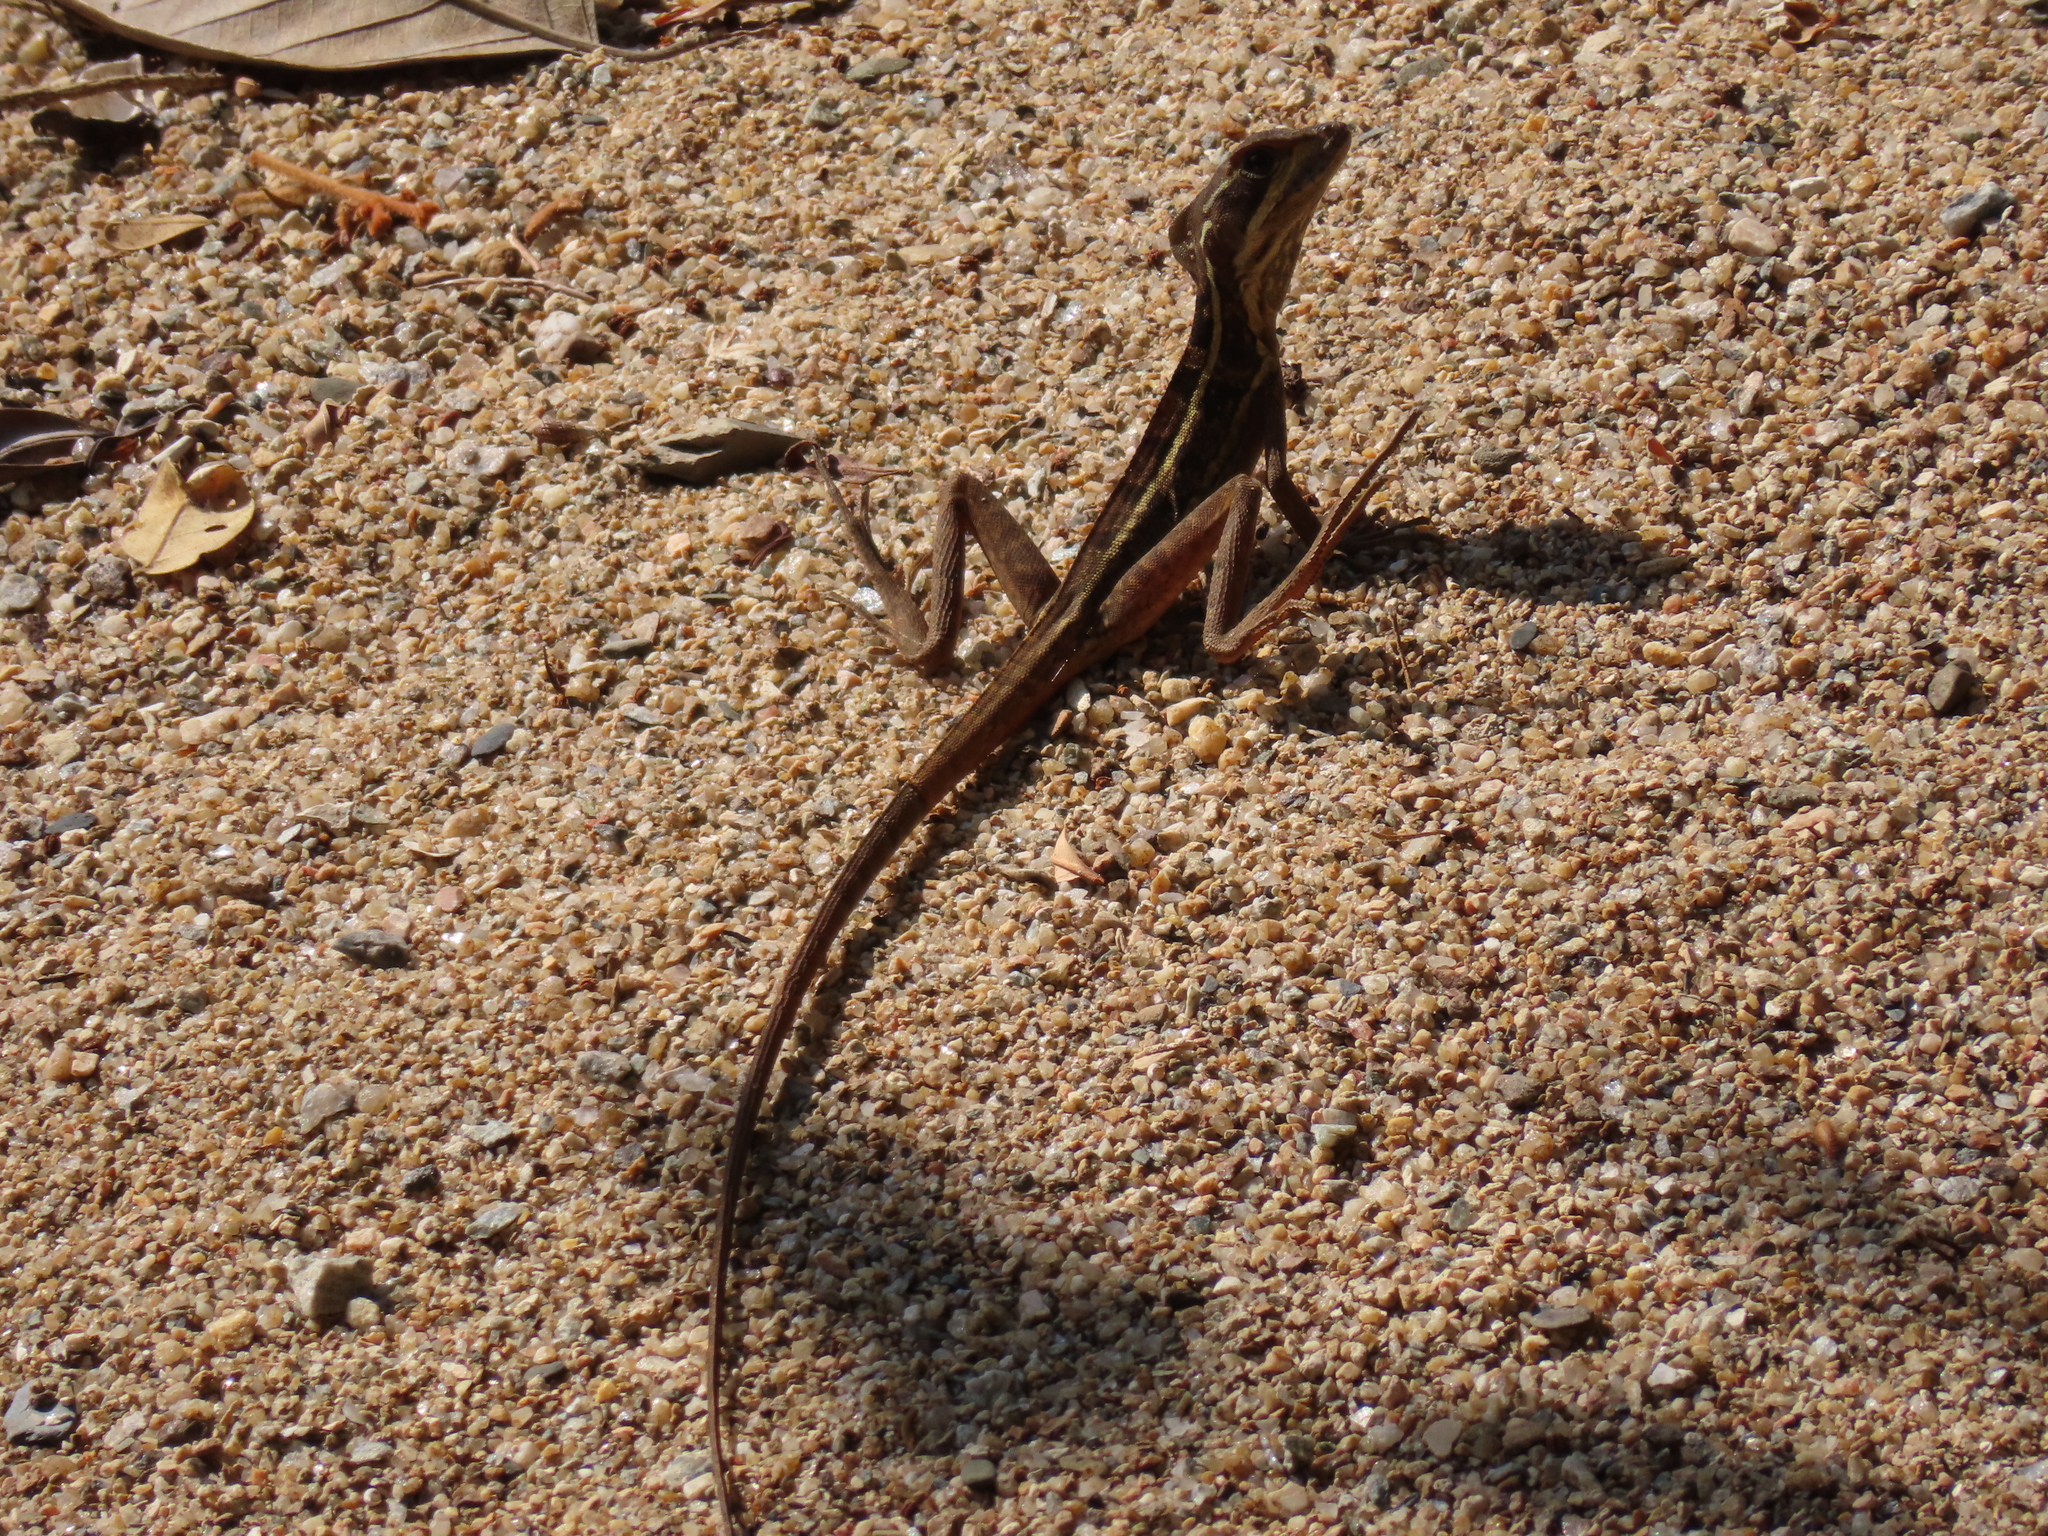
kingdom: Animalia
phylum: Chordata
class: Squamata
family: Corytophanidae
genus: Basiliscus
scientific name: Basiliscus vittatus
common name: Brown basilisk
